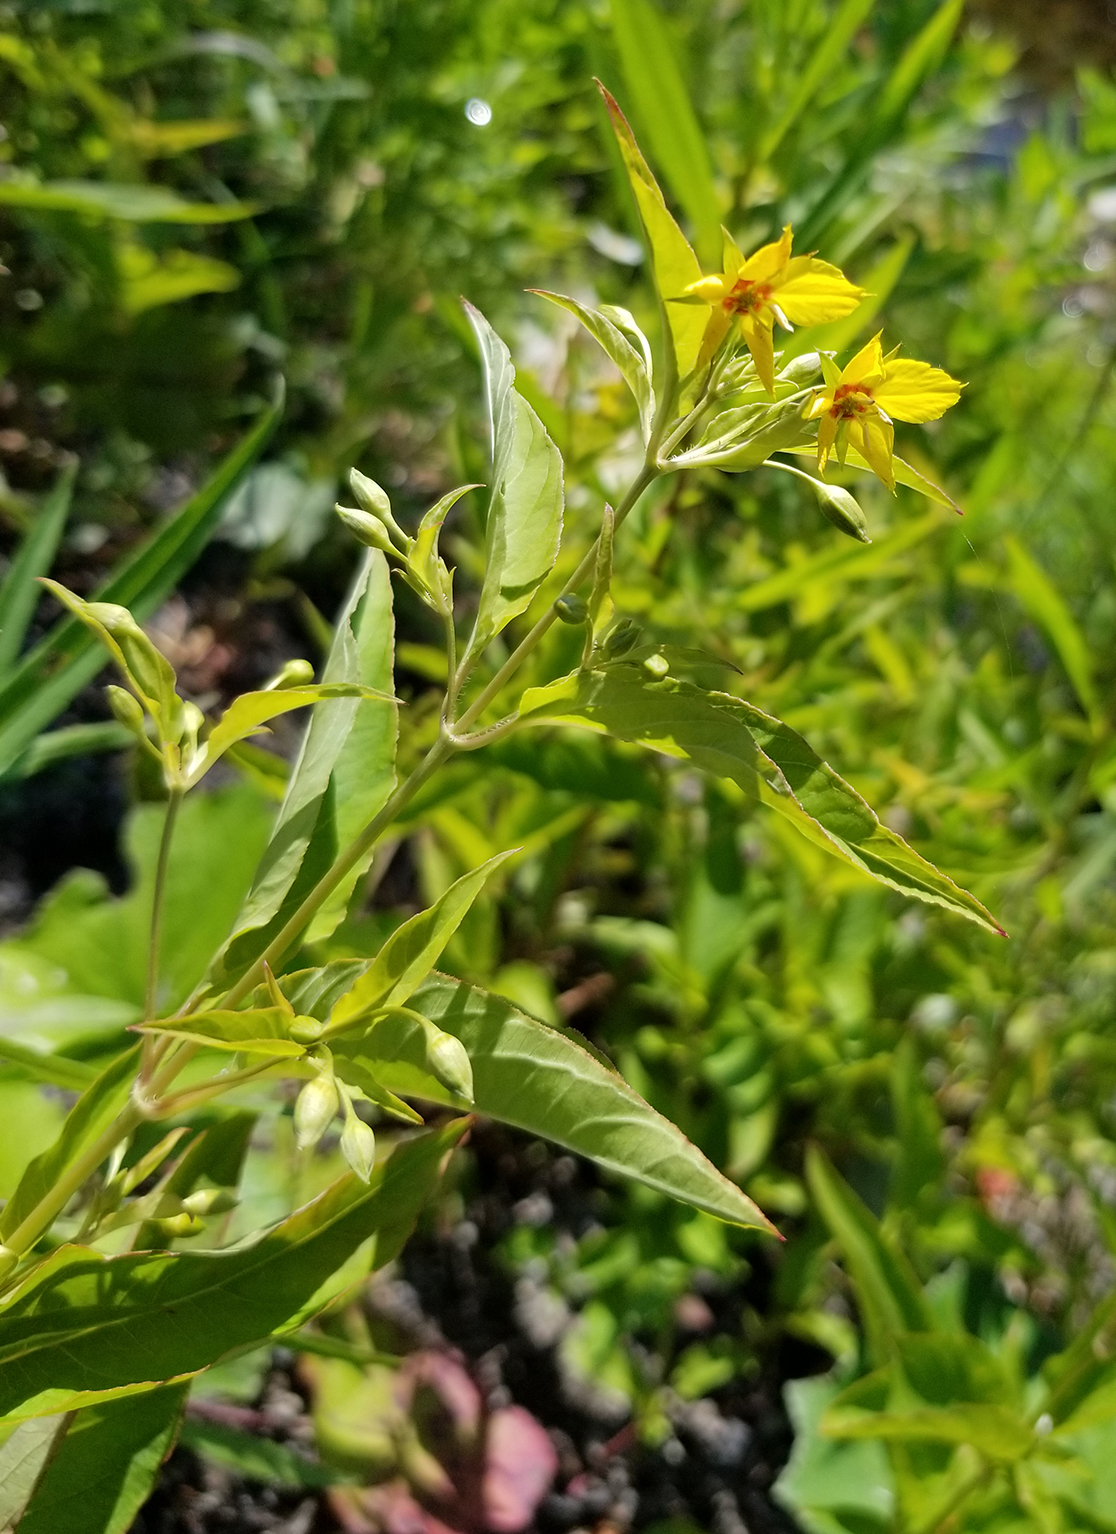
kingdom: Plantae
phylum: Tracheophyta
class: Magnoliopsida
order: Ericales
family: Primulaceae
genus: Lysimachia
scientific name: Lysimachia ciliata
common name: Fringed loosestrife
